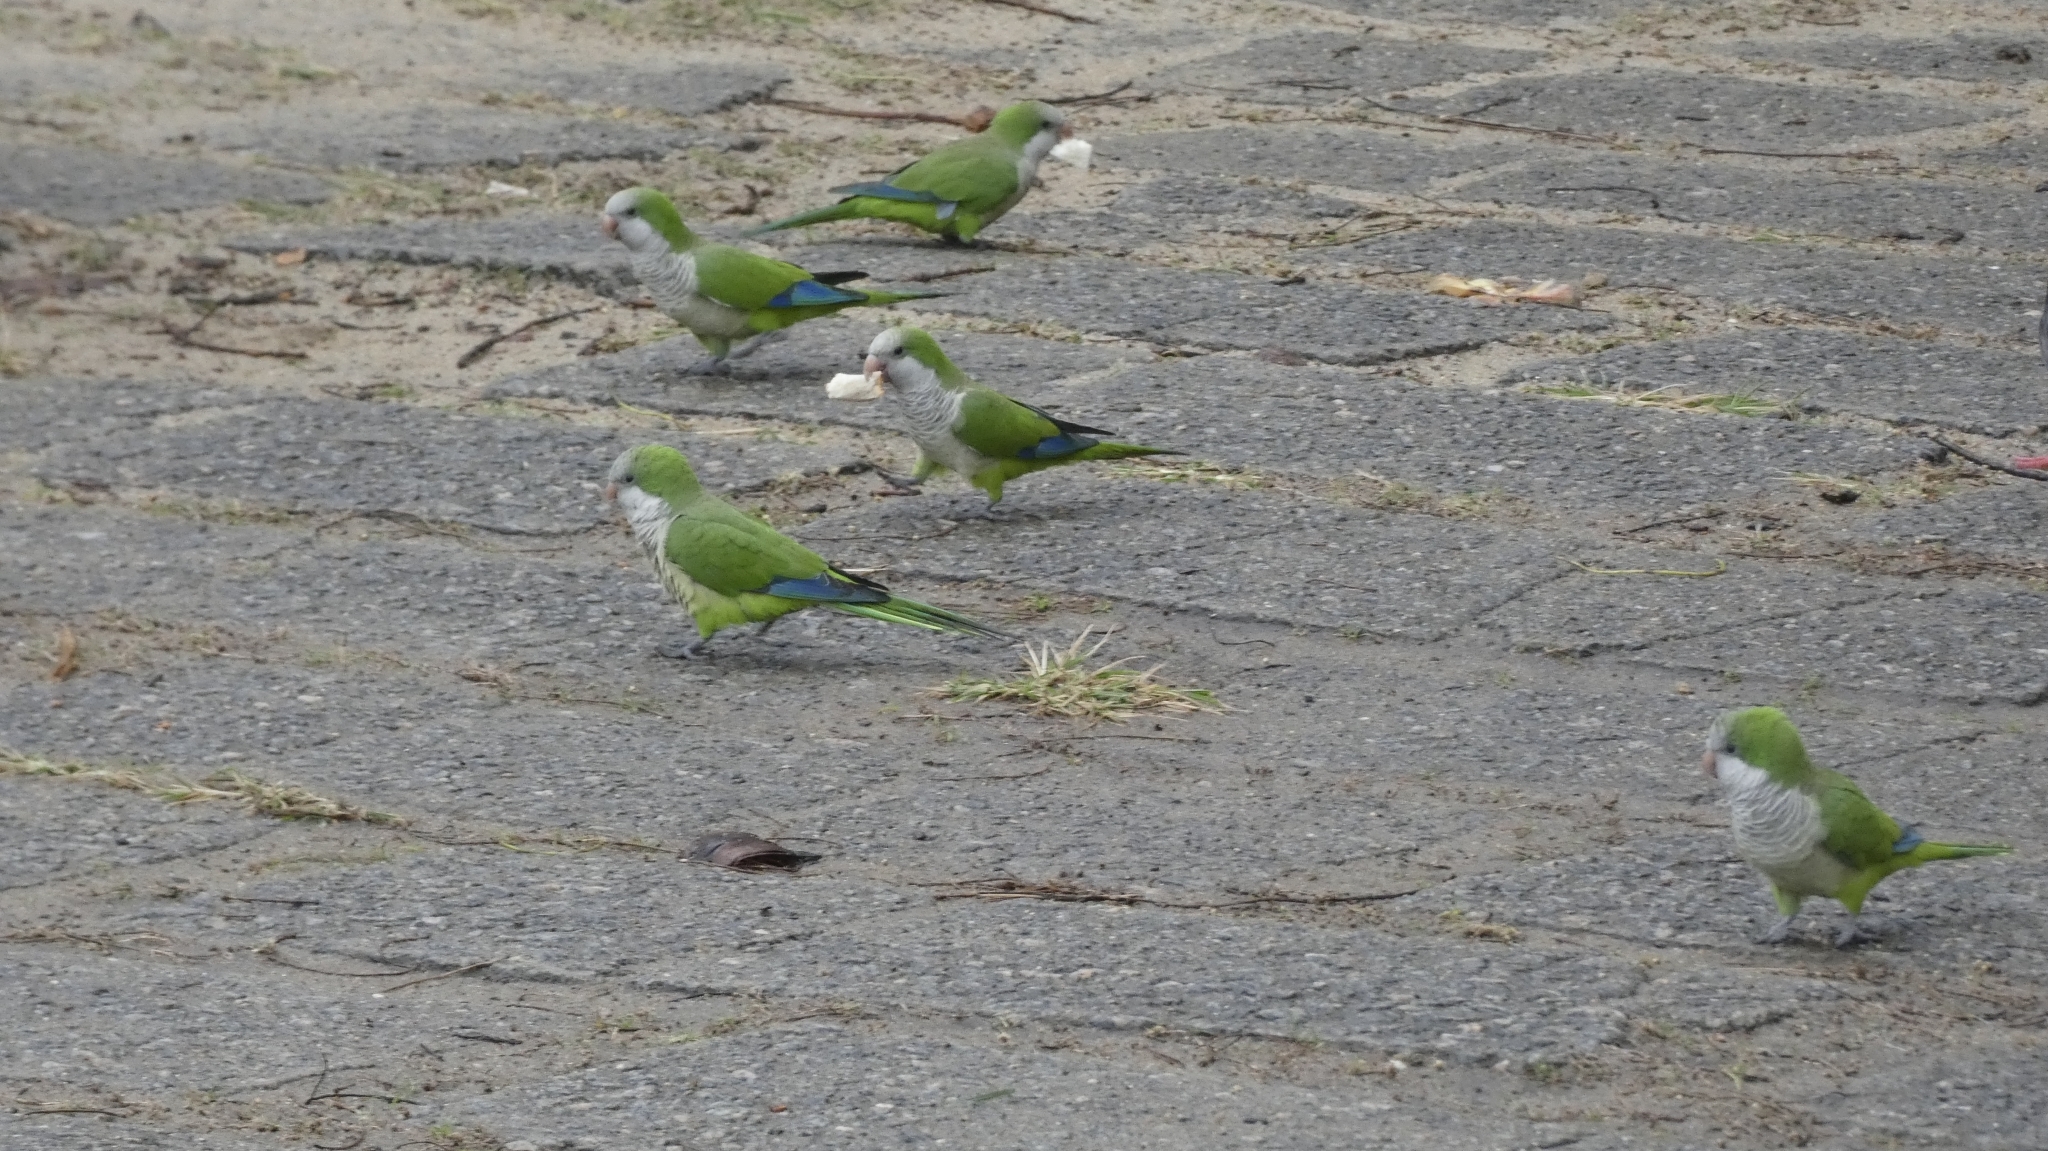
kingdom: Animalia
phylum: Chordata
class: Aves
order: Psittaciformes
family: Psittacidae
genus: Myiopsitta
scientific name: Myiopsitta monachus
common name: Monk parakeet
